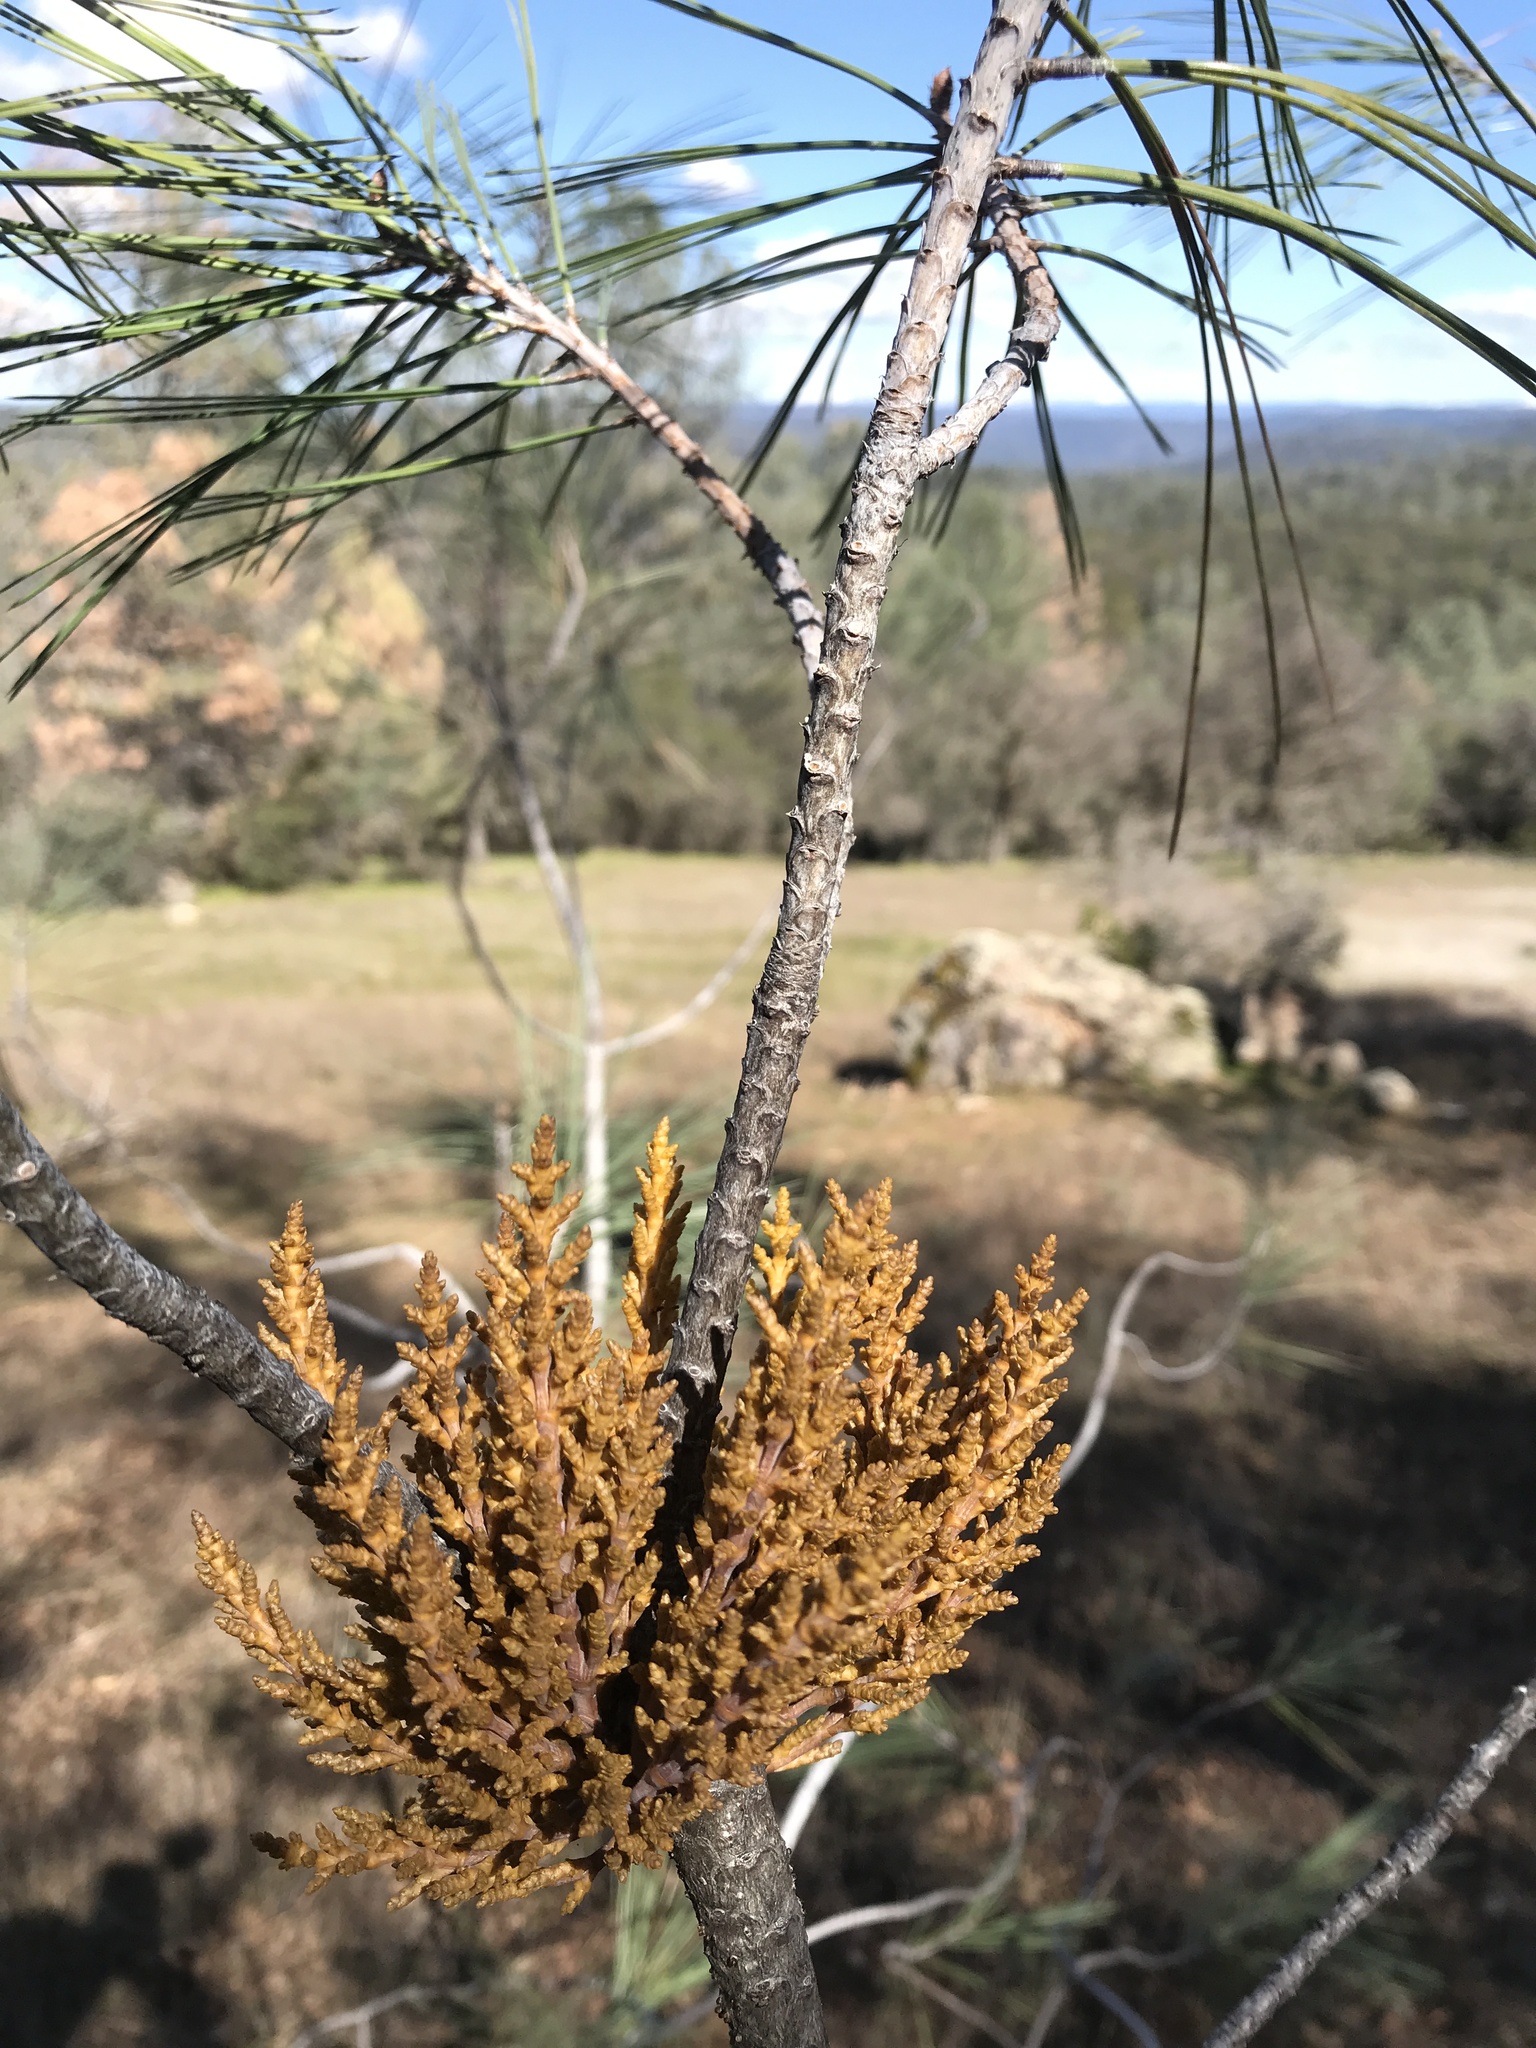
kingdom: Plantae
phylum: Tracheophyta
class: Magnoliopsida
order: Santalales
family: Viscaceae
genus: Arceuthobium
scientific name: Arceuthobium campylopodum
